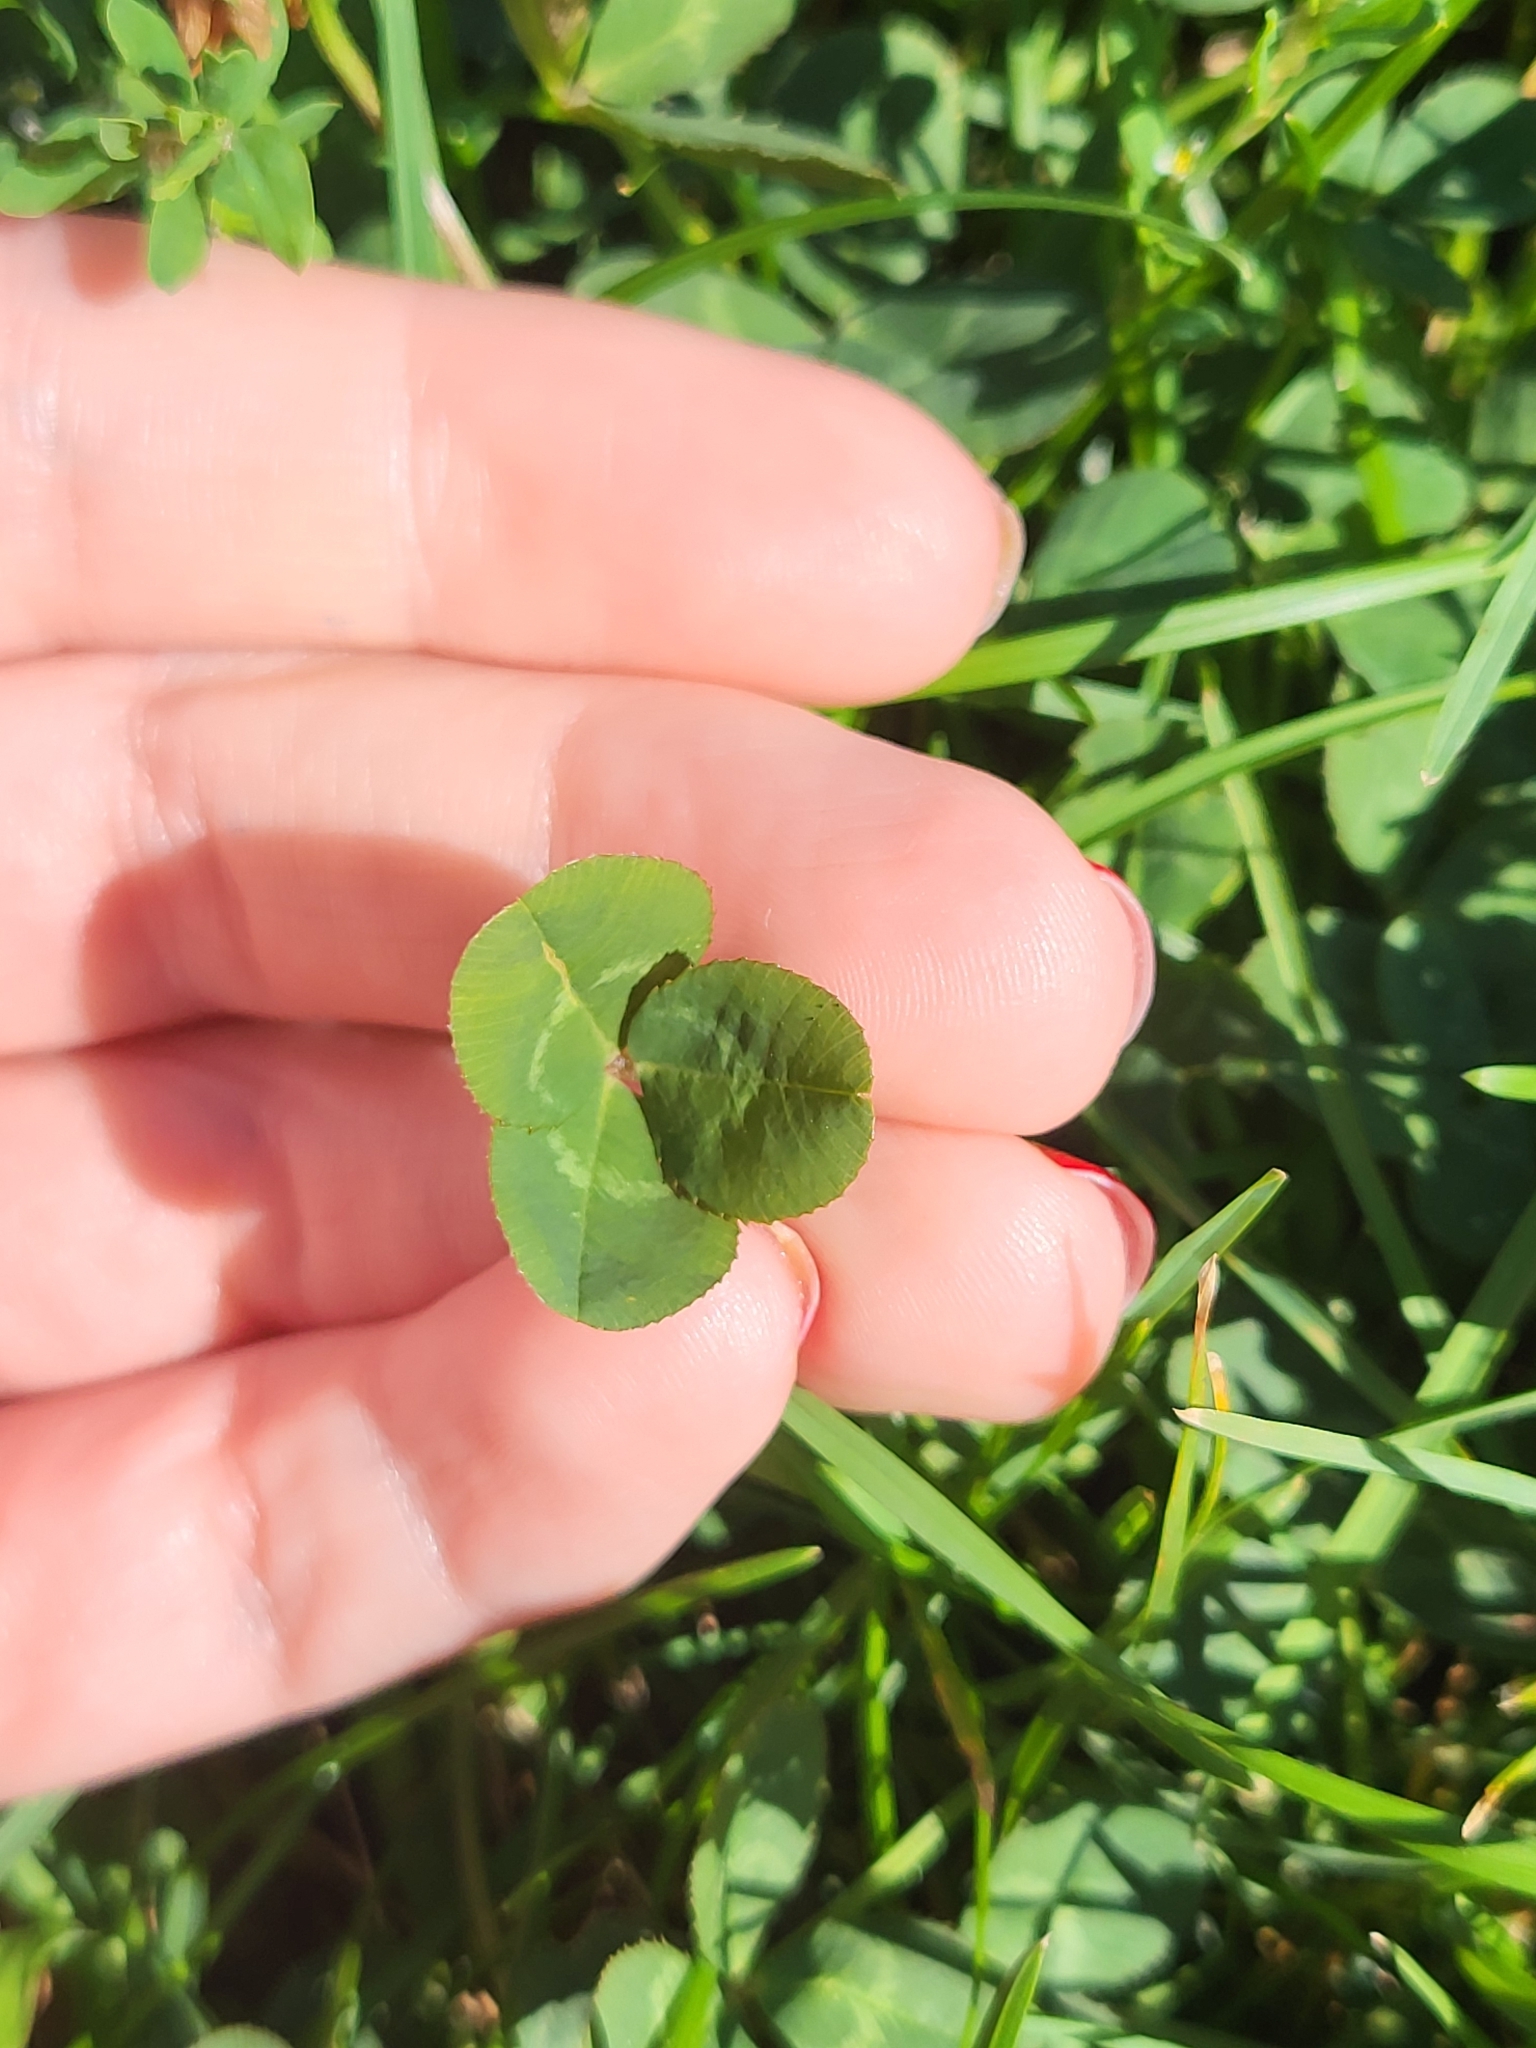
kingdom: Plantae
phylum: Tracheophyta
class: Magnoliopsida
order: Fabales
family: Fabaceae
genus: Trifolium
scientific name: Trifolium repens
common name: White clover
